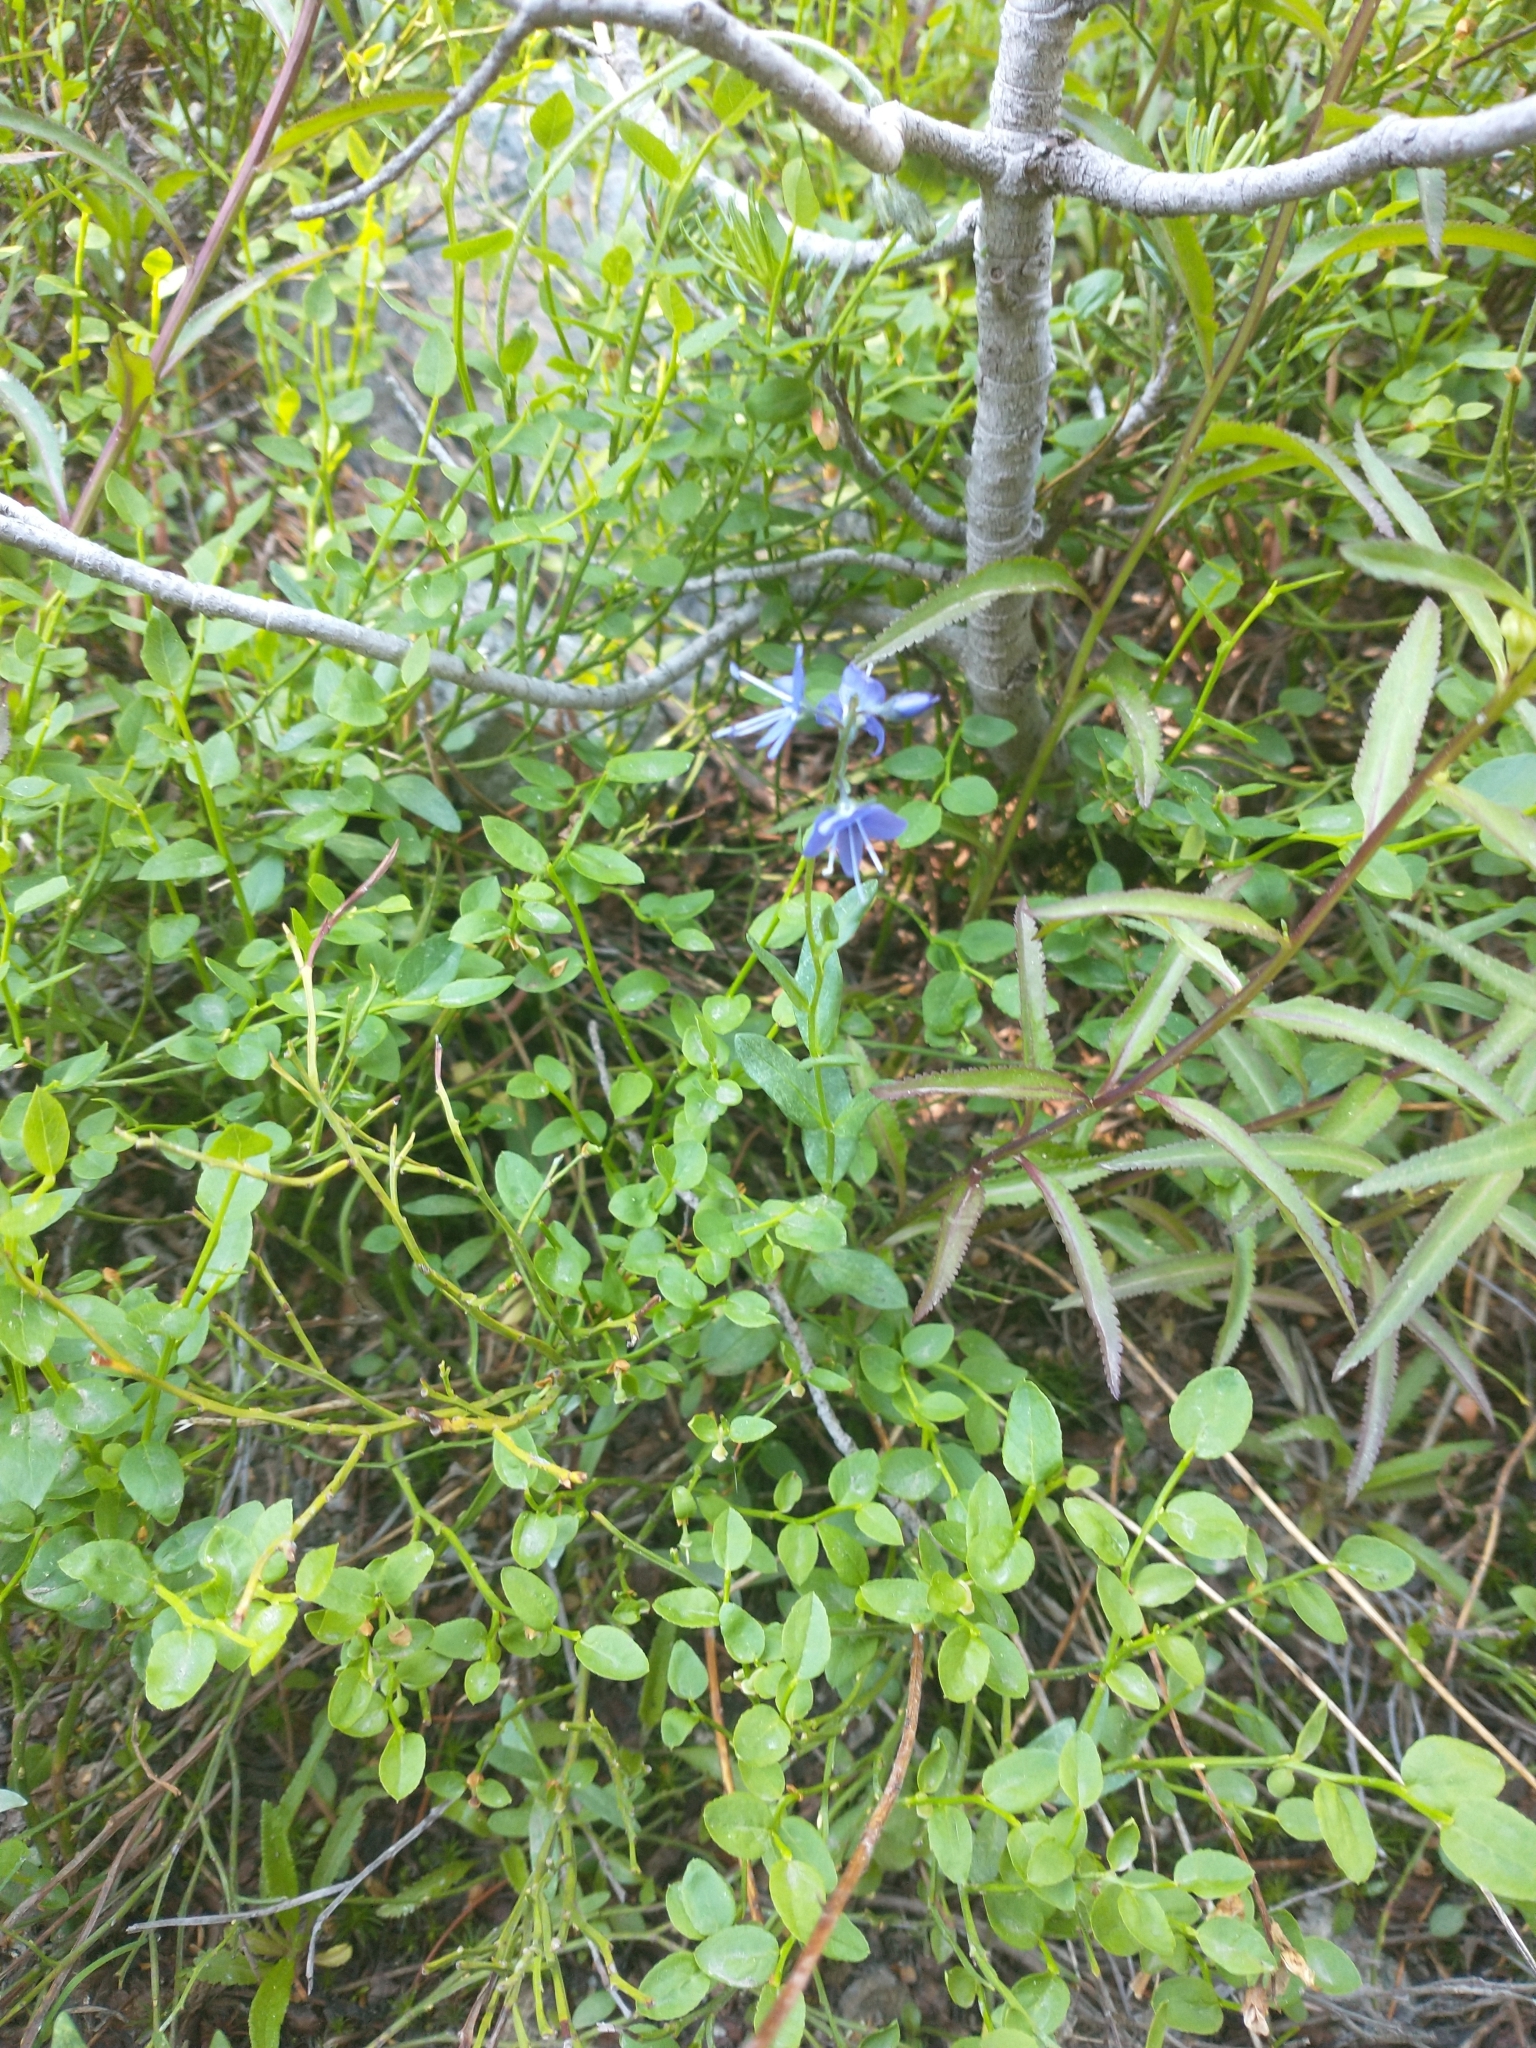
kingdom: Plantae
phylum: Tracheophyta
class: Magnoliopsida
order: Lamiales
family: Plantaginaceae
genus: Veronica
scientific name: Veronica cusickii
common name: Cusick's speedwell
